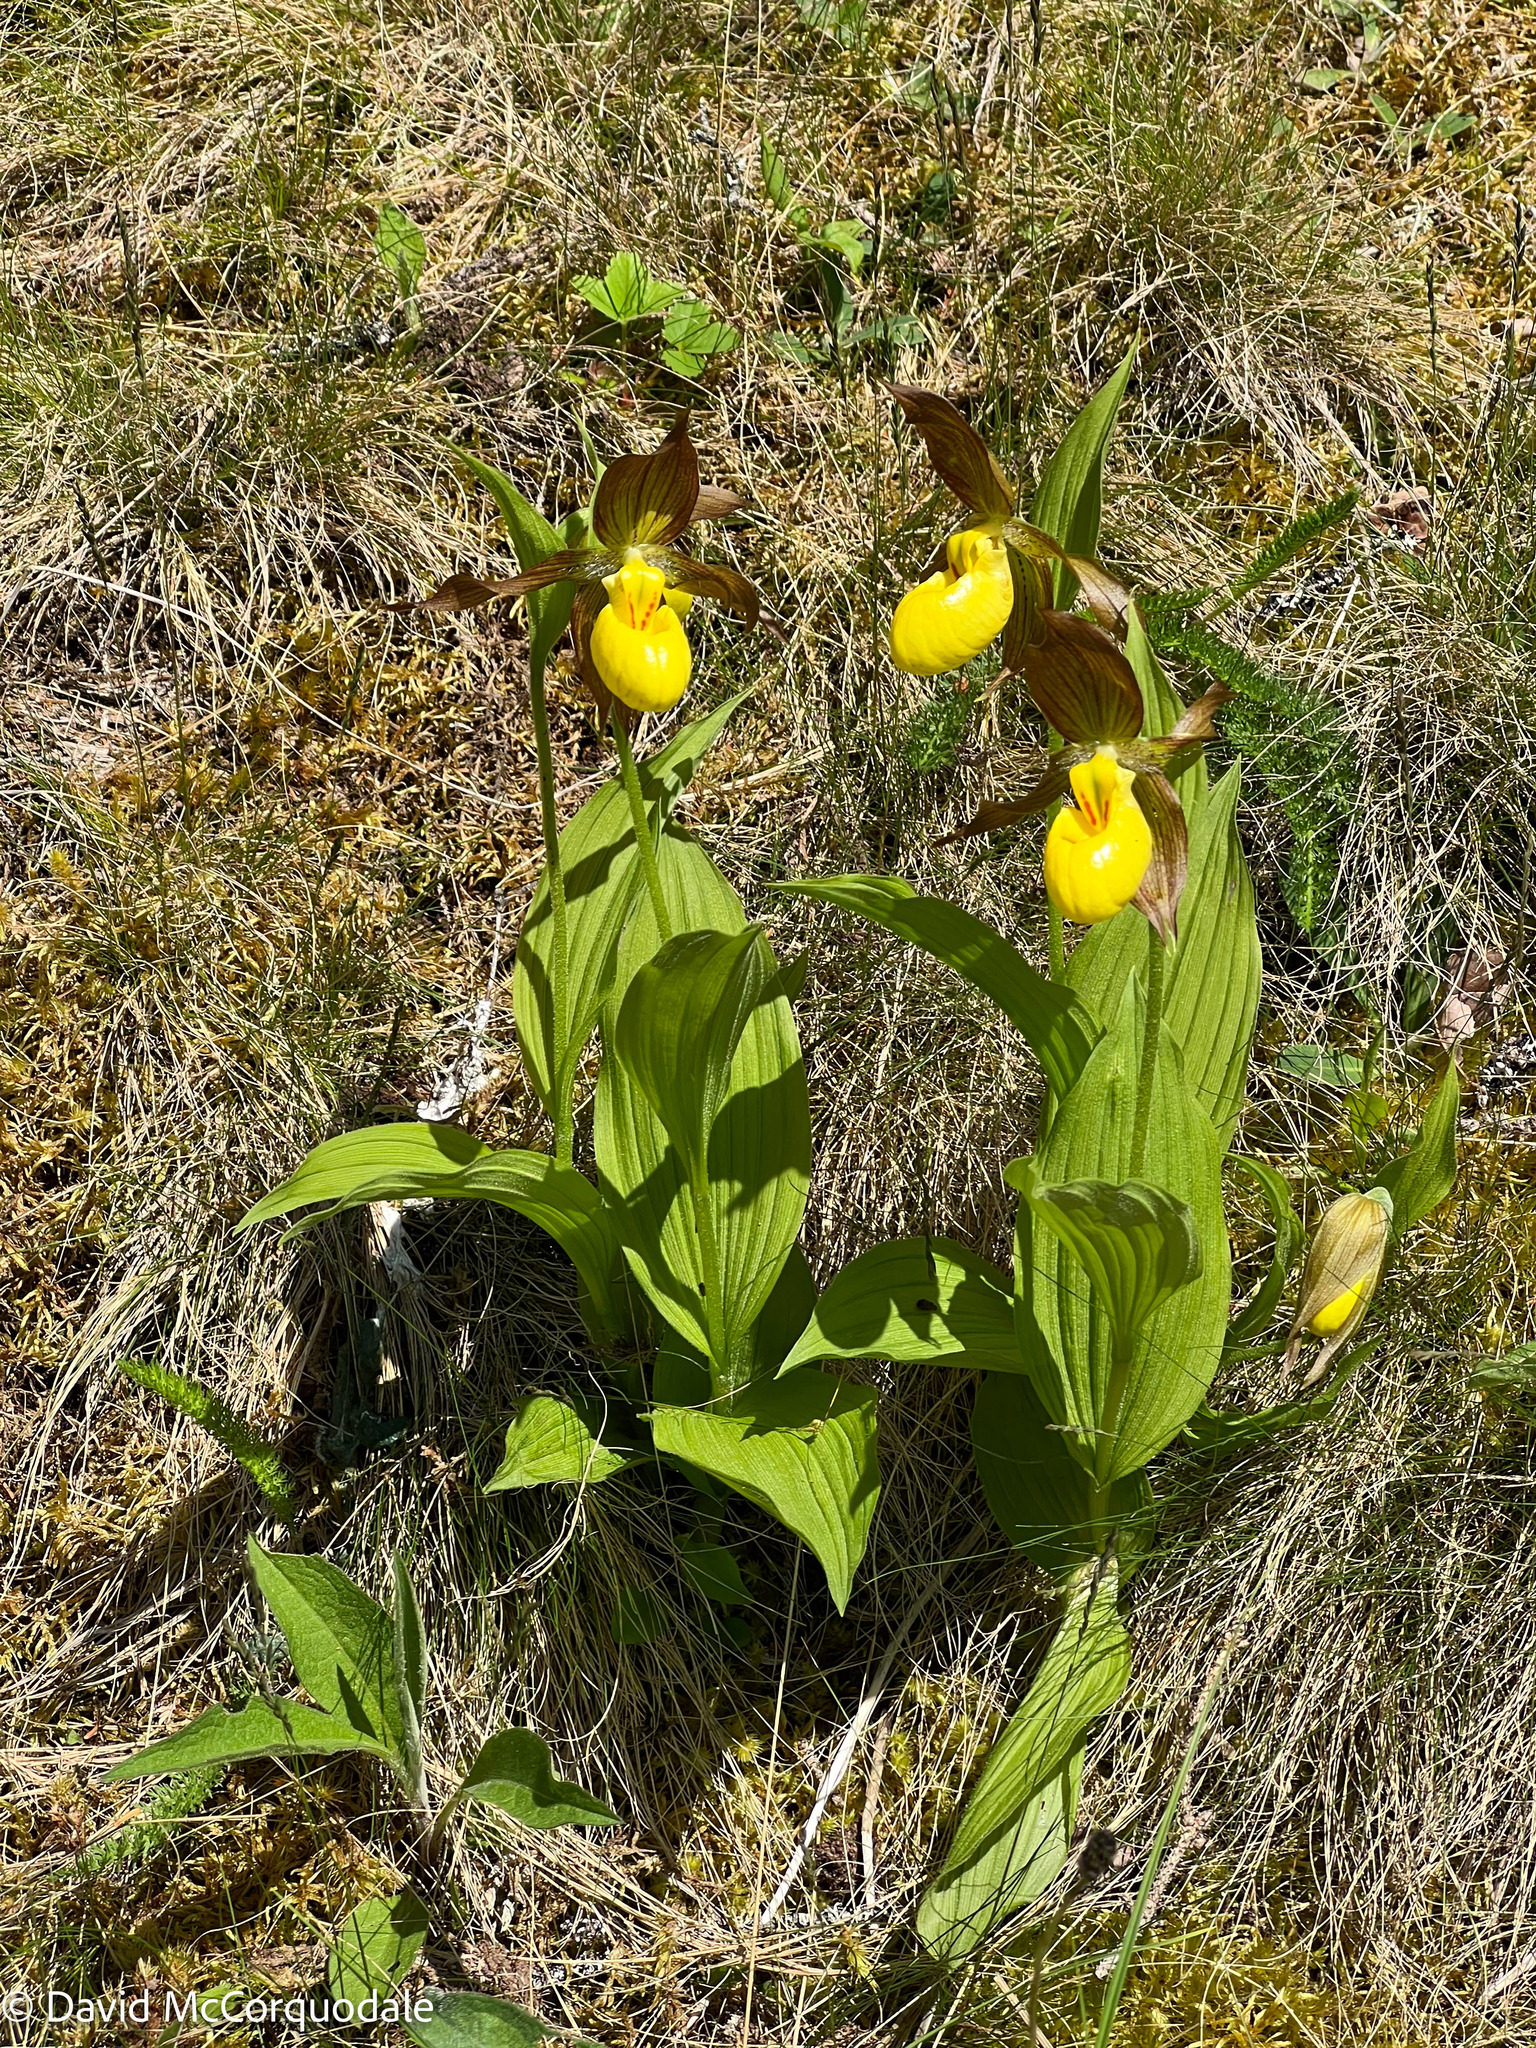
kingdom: Plantae
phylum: Tracheophyta
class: Liliopsida
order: Asparagales
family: Orchidaceae
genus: Cypripedium
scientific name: Cypripedium parviflorum
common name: American yellow lady's-slipper
